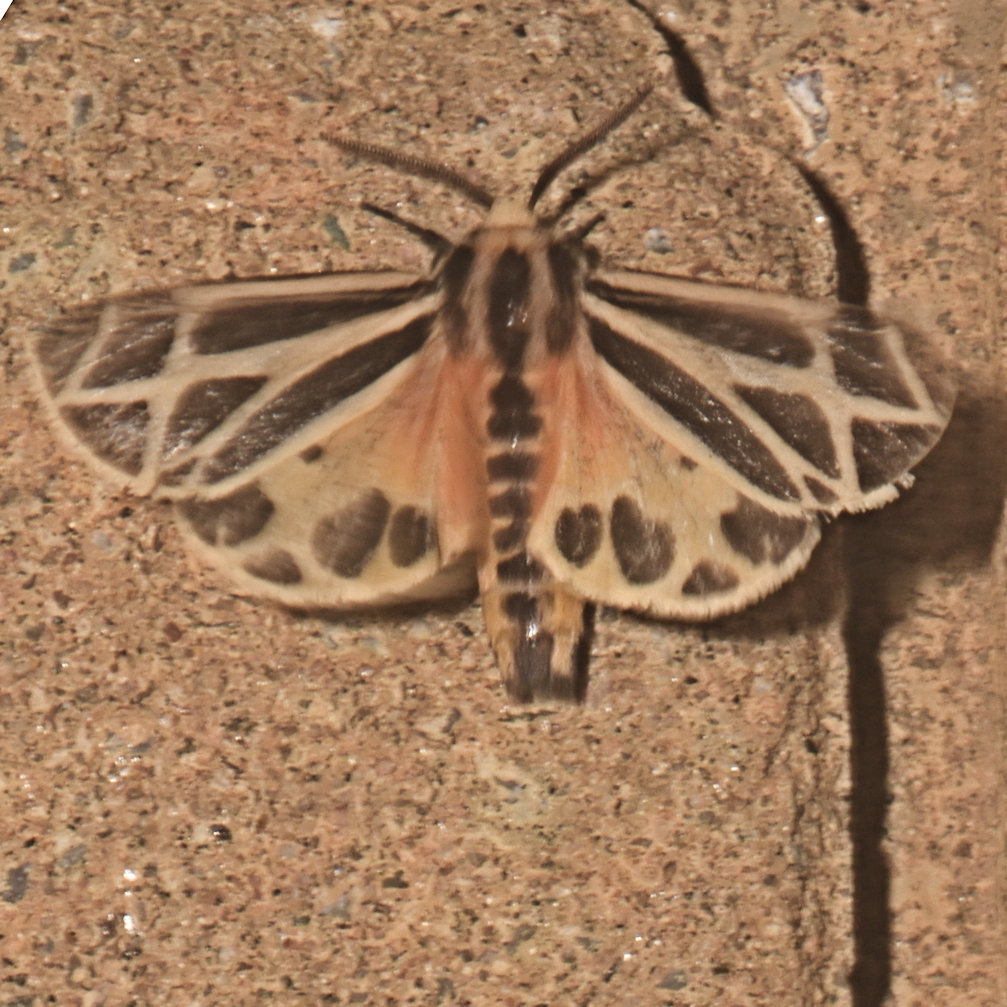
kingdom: Animalia
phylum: Arthropoda
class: Insecta
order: Lepidoptera
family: Erebidae
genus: Apantesis
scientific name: Apantesis phalerata
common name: Harnessed tiger moth
